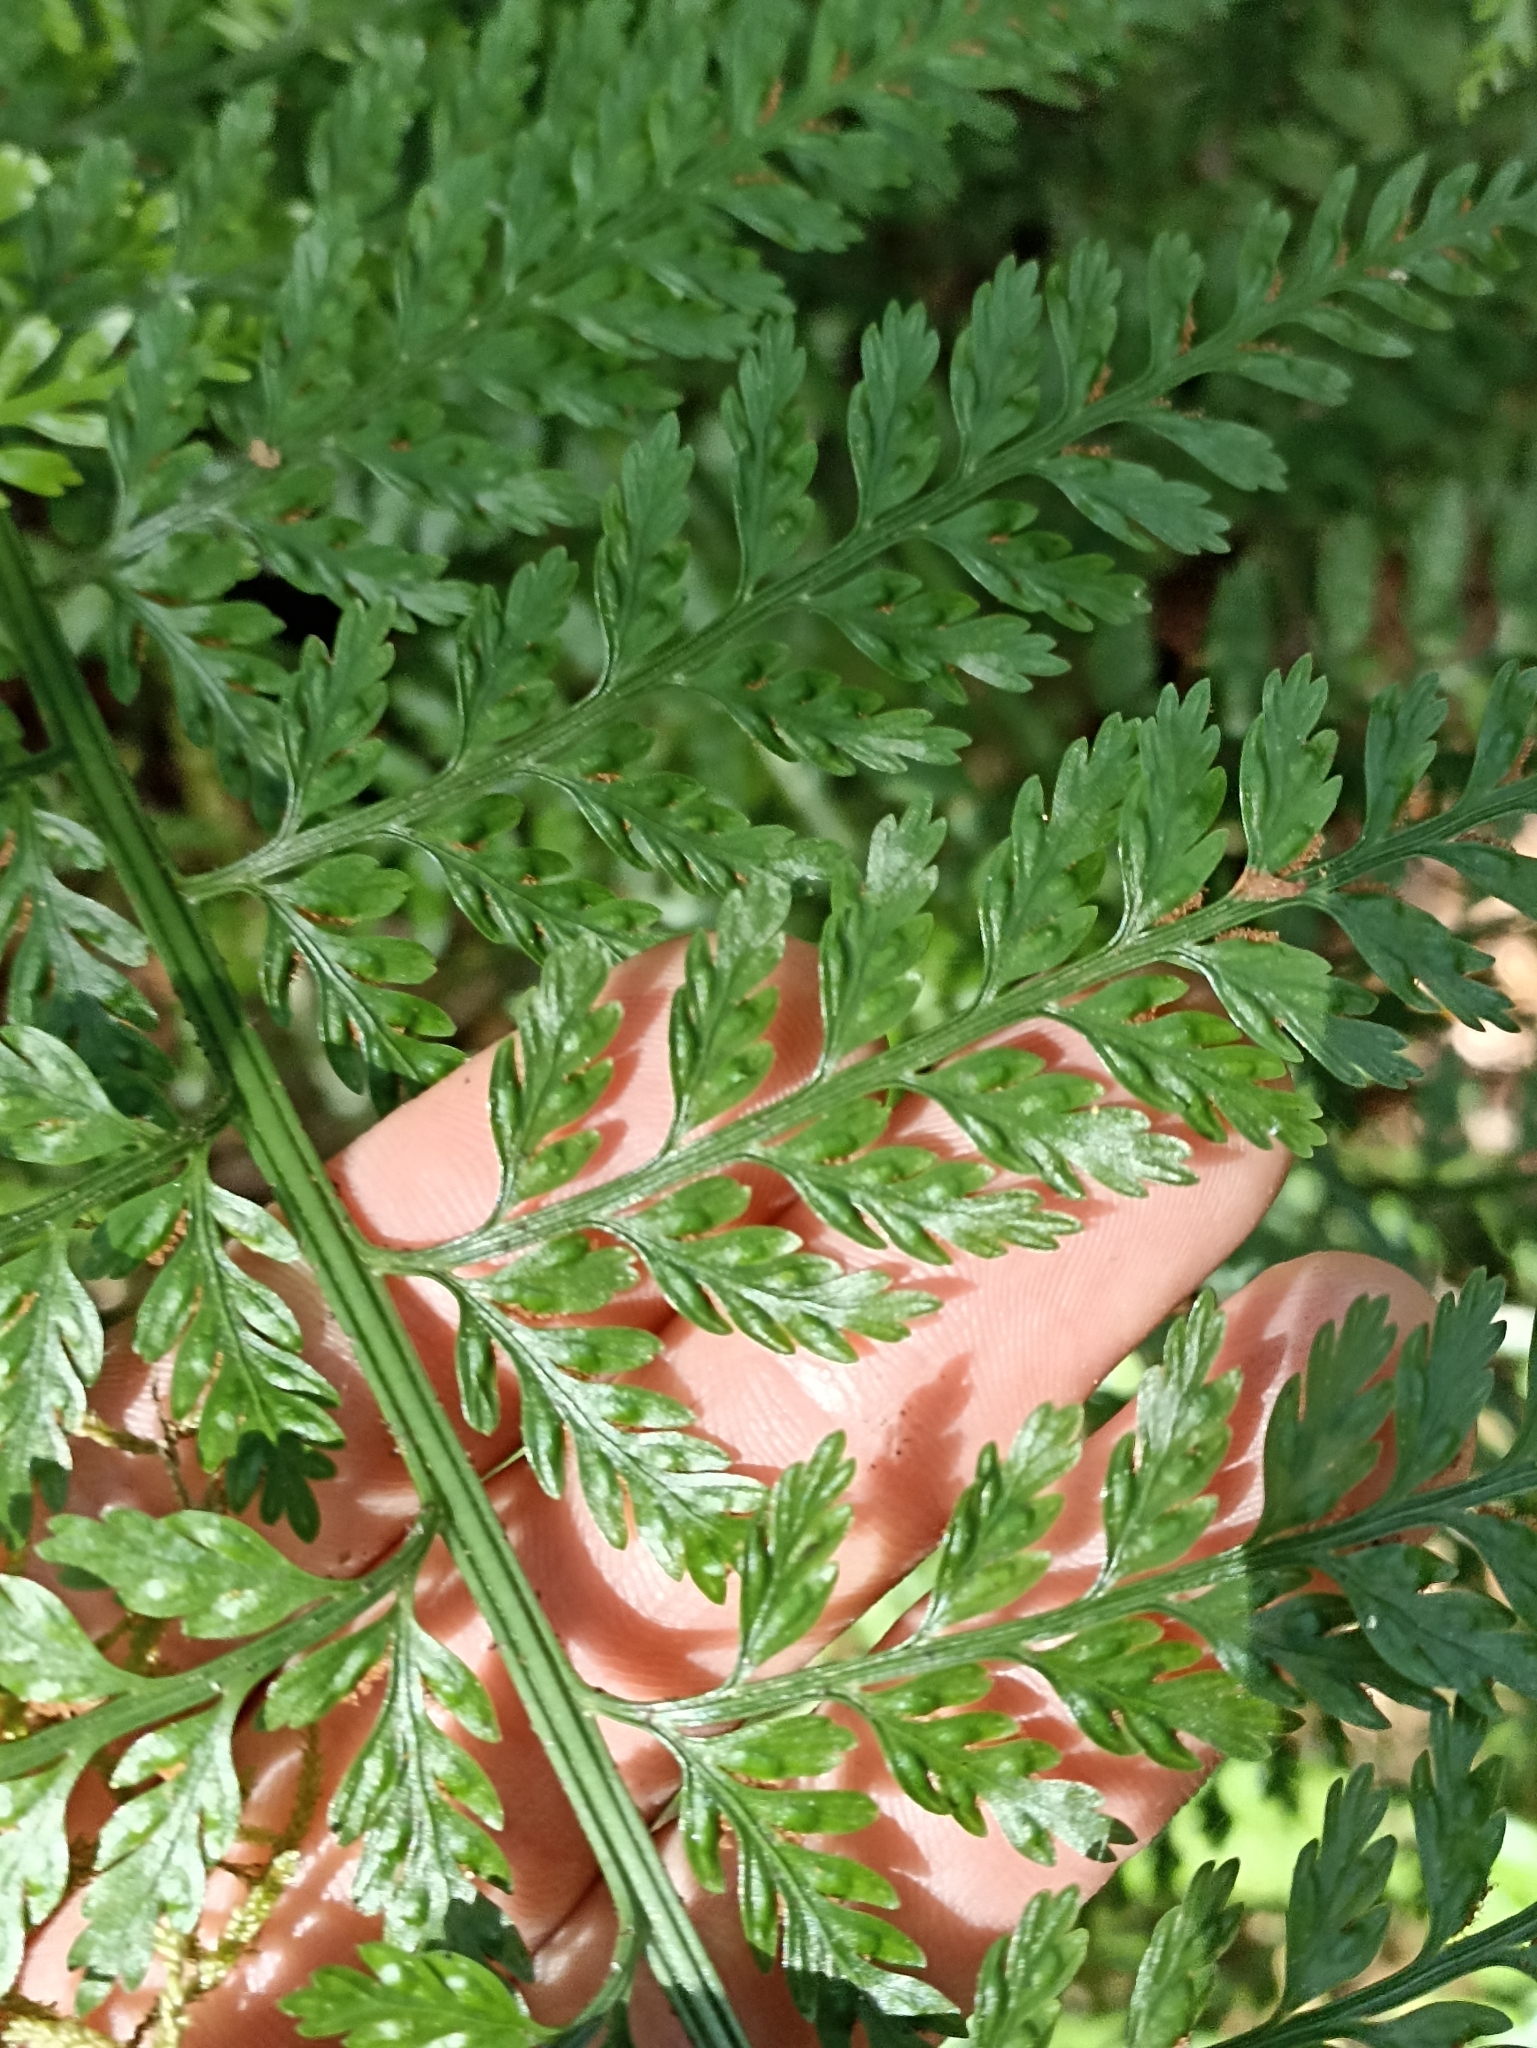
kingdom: Plantae
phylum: Tracheophyta
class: Polypodiopsida
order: Polypodiales
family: Aspleniaceae
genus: Asplenium
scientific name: Asplenium
